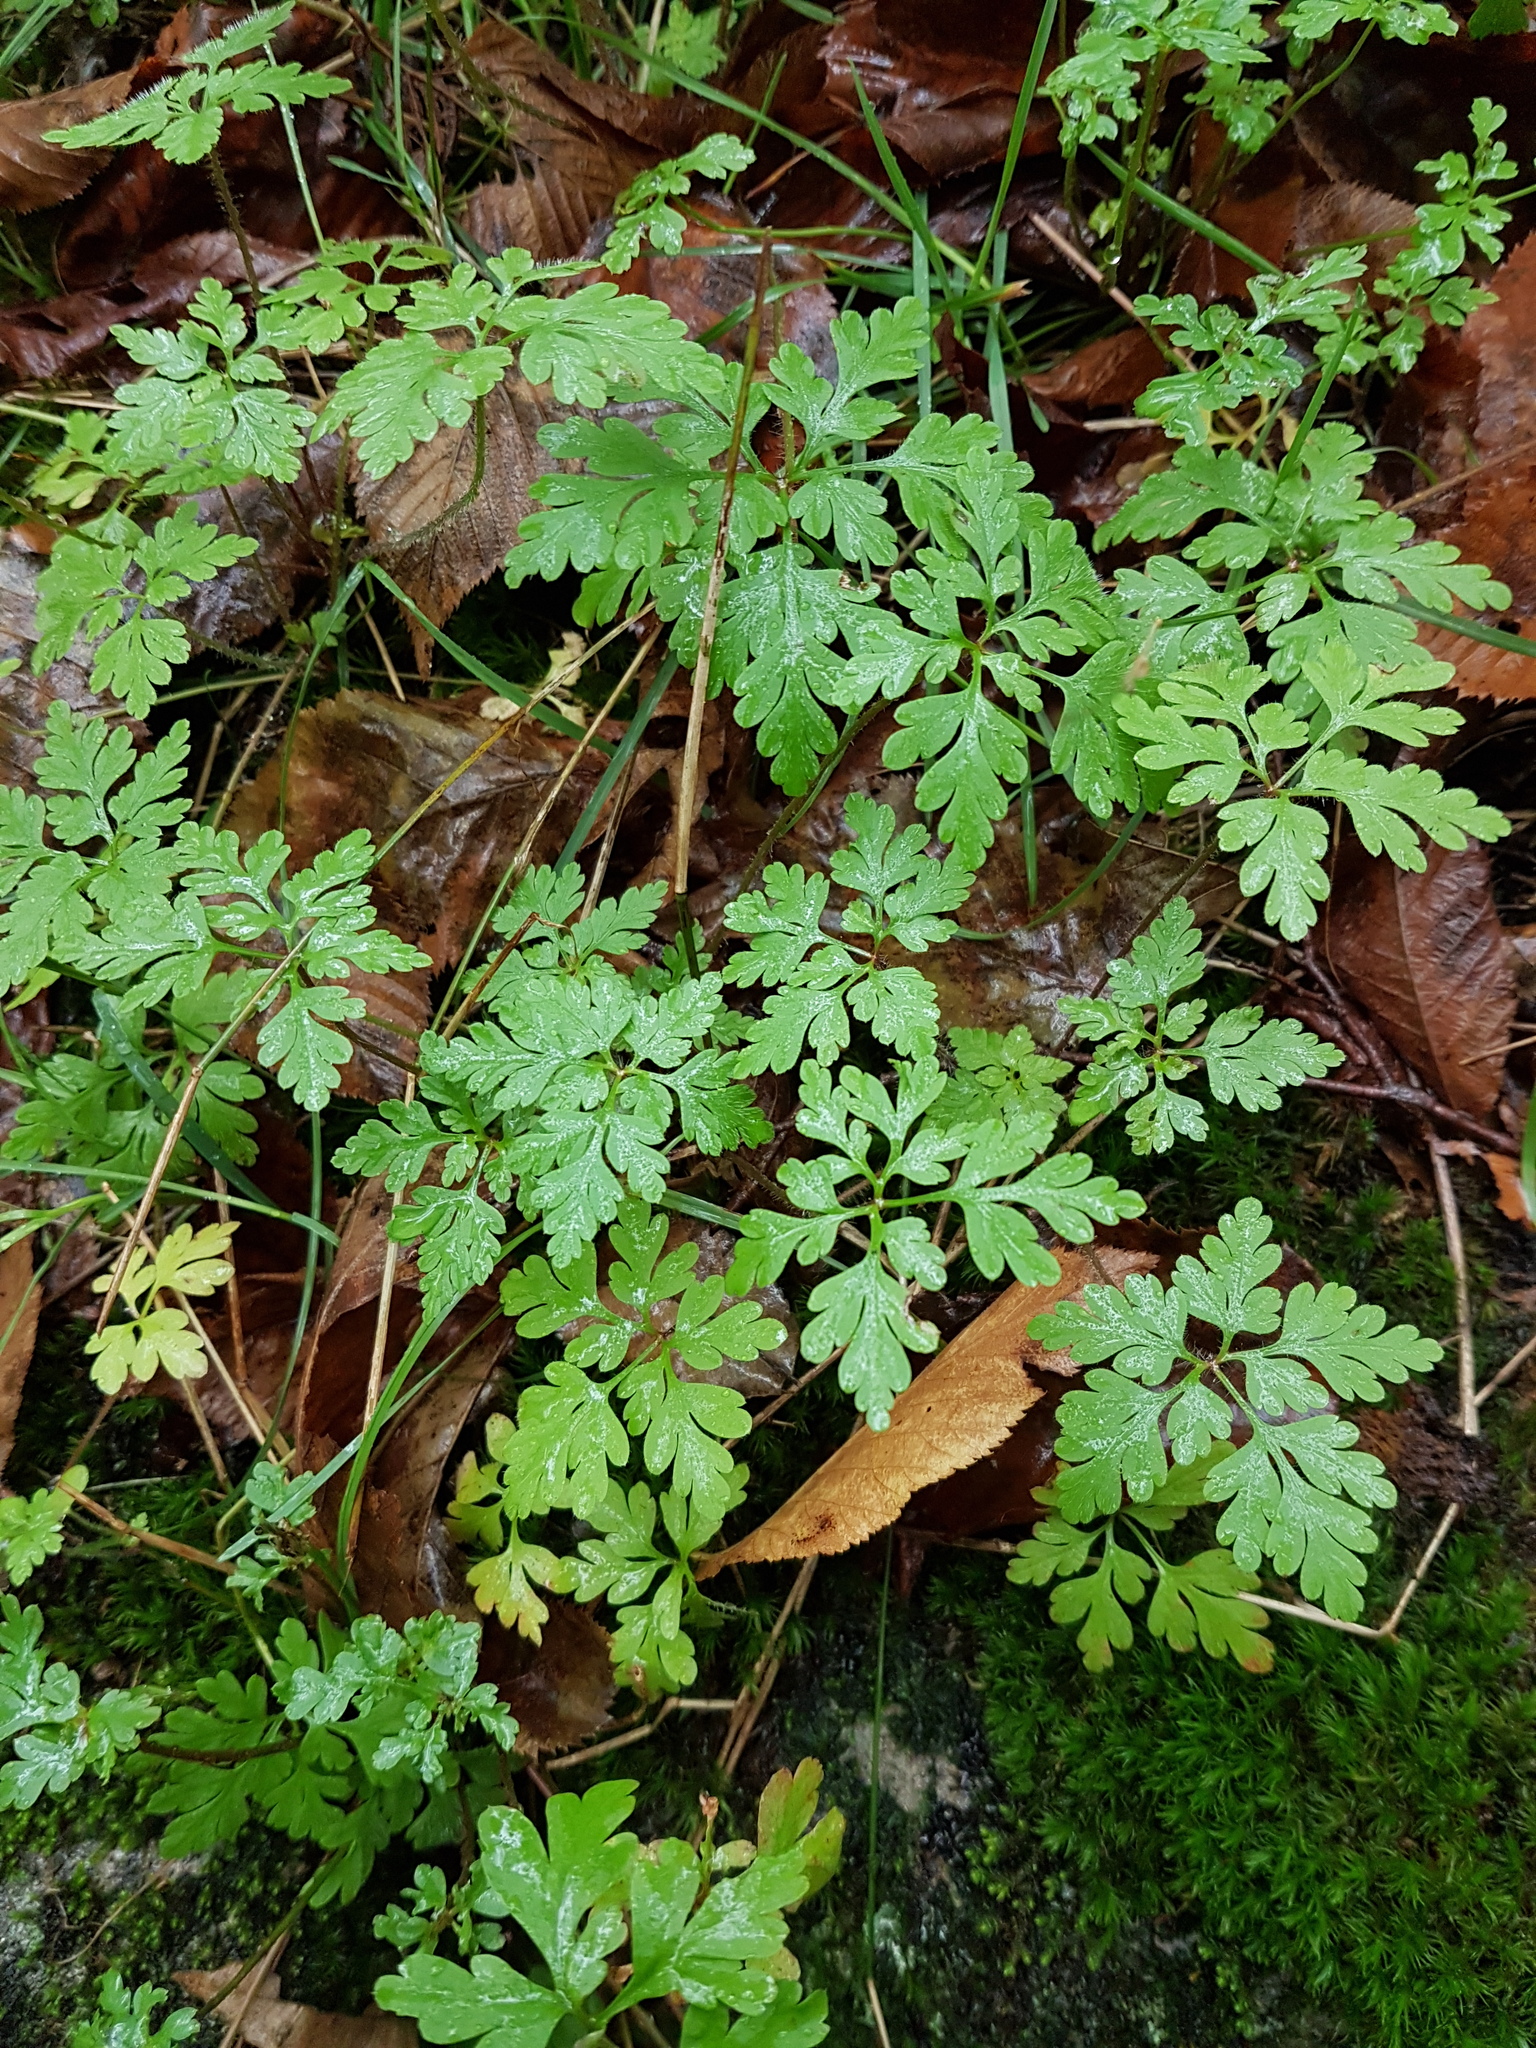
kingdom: Plantae
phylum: Tracheophyta
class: Magnoliopsida
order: Geraniales
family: Geraniaceae
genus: Geranium
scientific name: Geranium robertianum
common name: Herb-robert
